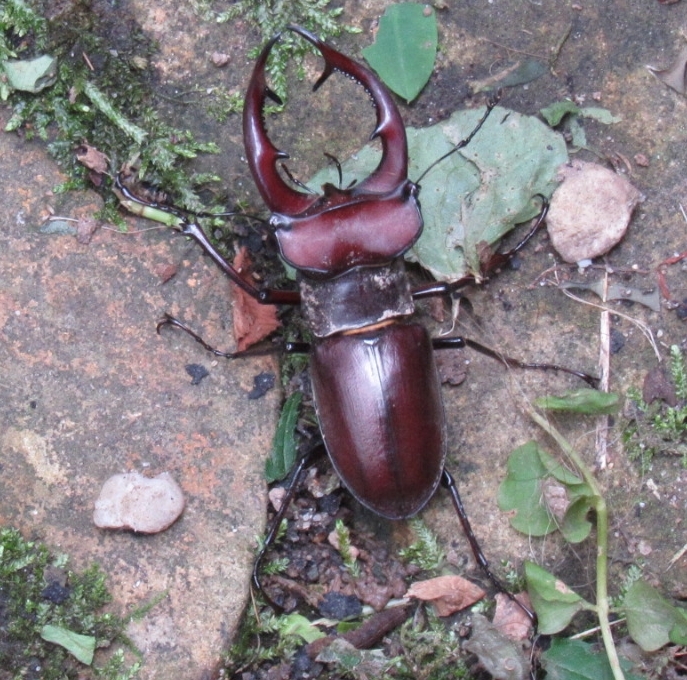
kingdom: Animalia
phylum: Arthropoda
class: Insecta
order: Coleoptera
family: Lucanidae
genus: Lucanus
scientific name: Lucanus elaphus
